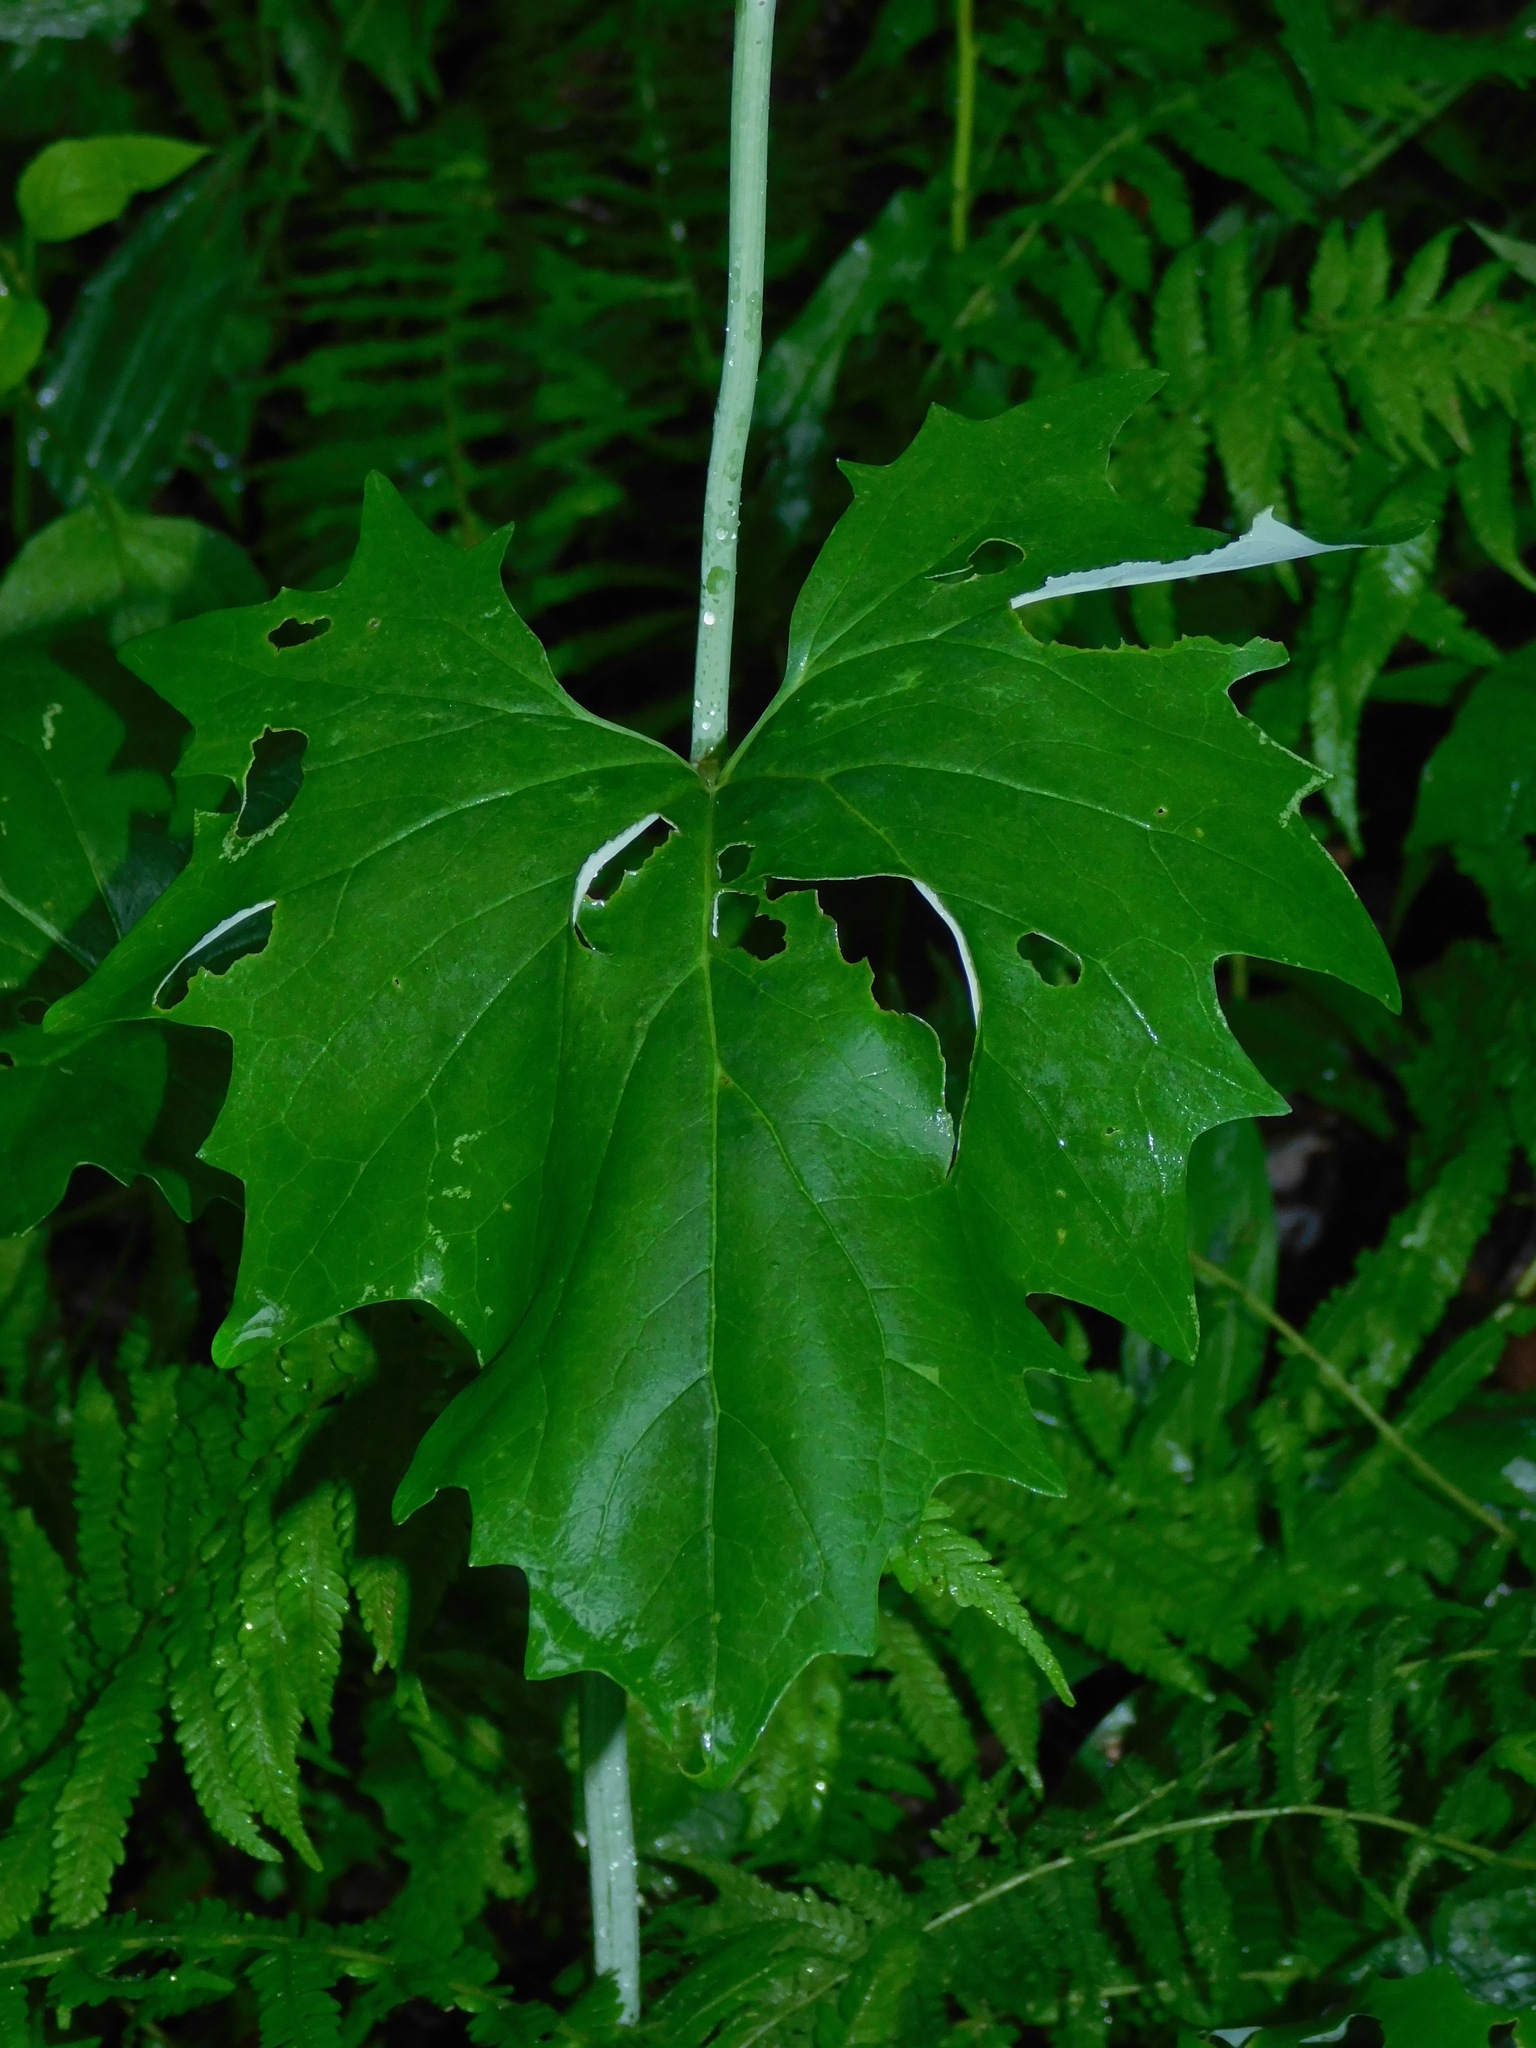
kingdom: Plantae
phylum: Tracheophyta
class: Magnoliopsida
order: Asterales
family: Asteraceae
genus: Arnoglossum
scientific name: Arnoglossum atriplicifolium
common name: Pale indian-plantain
